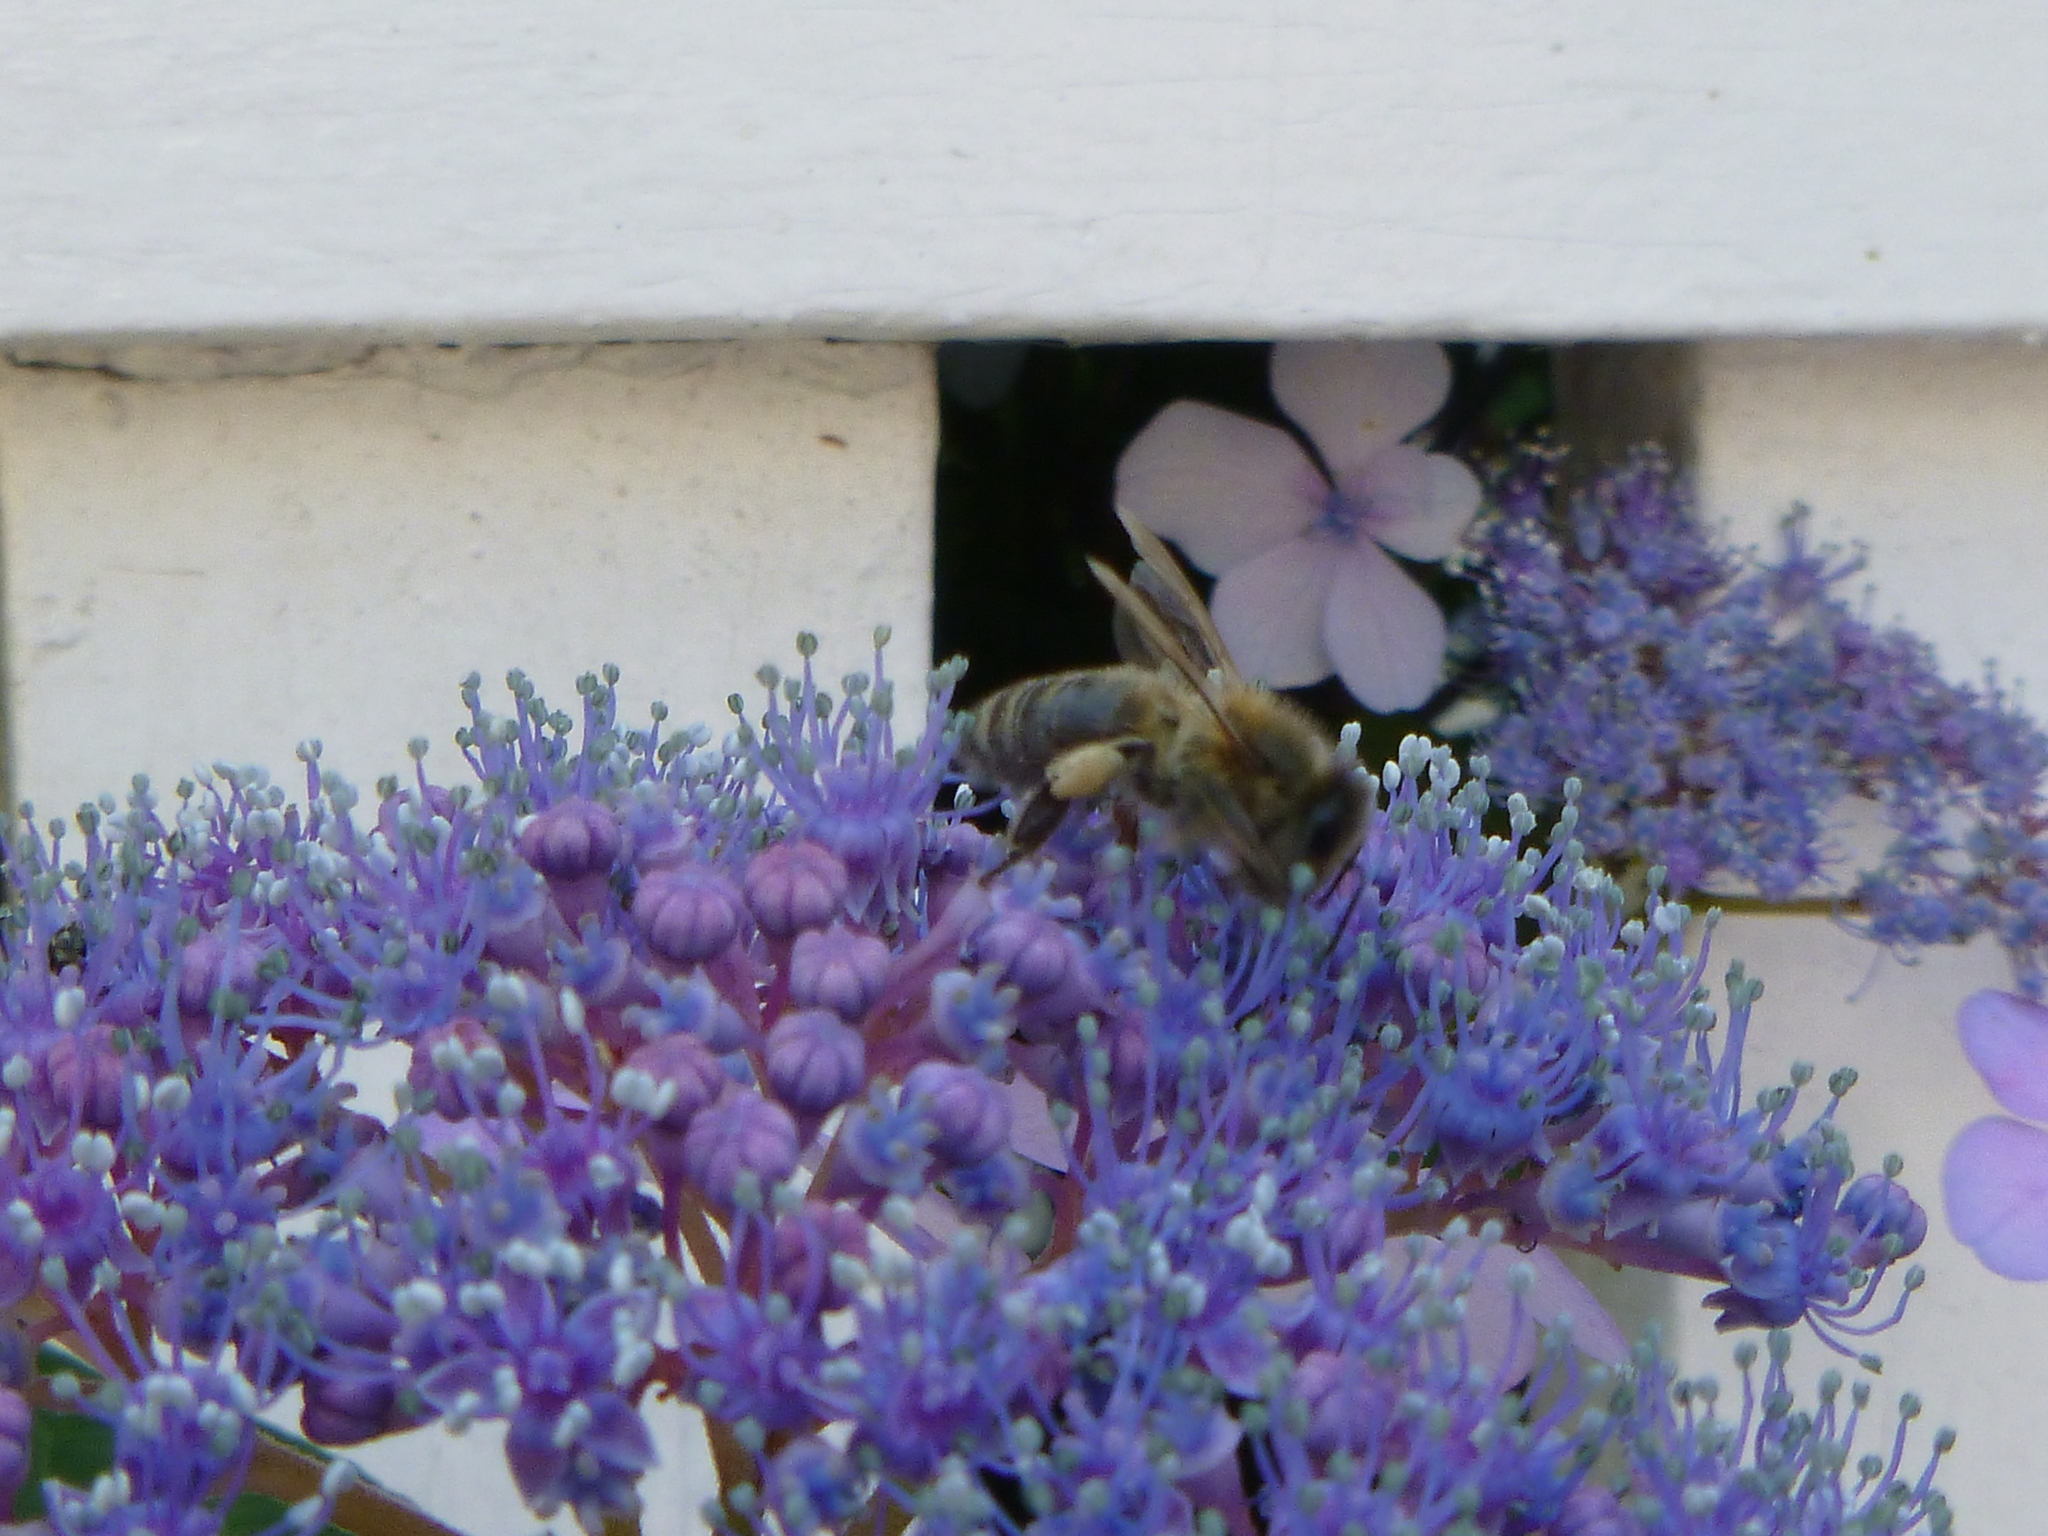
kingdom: Animalia
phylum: Arthropoda
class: Insecta
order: Hymenoptera
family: Apidae
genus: Apis
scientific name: Apis mellifera
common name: Honey bee
